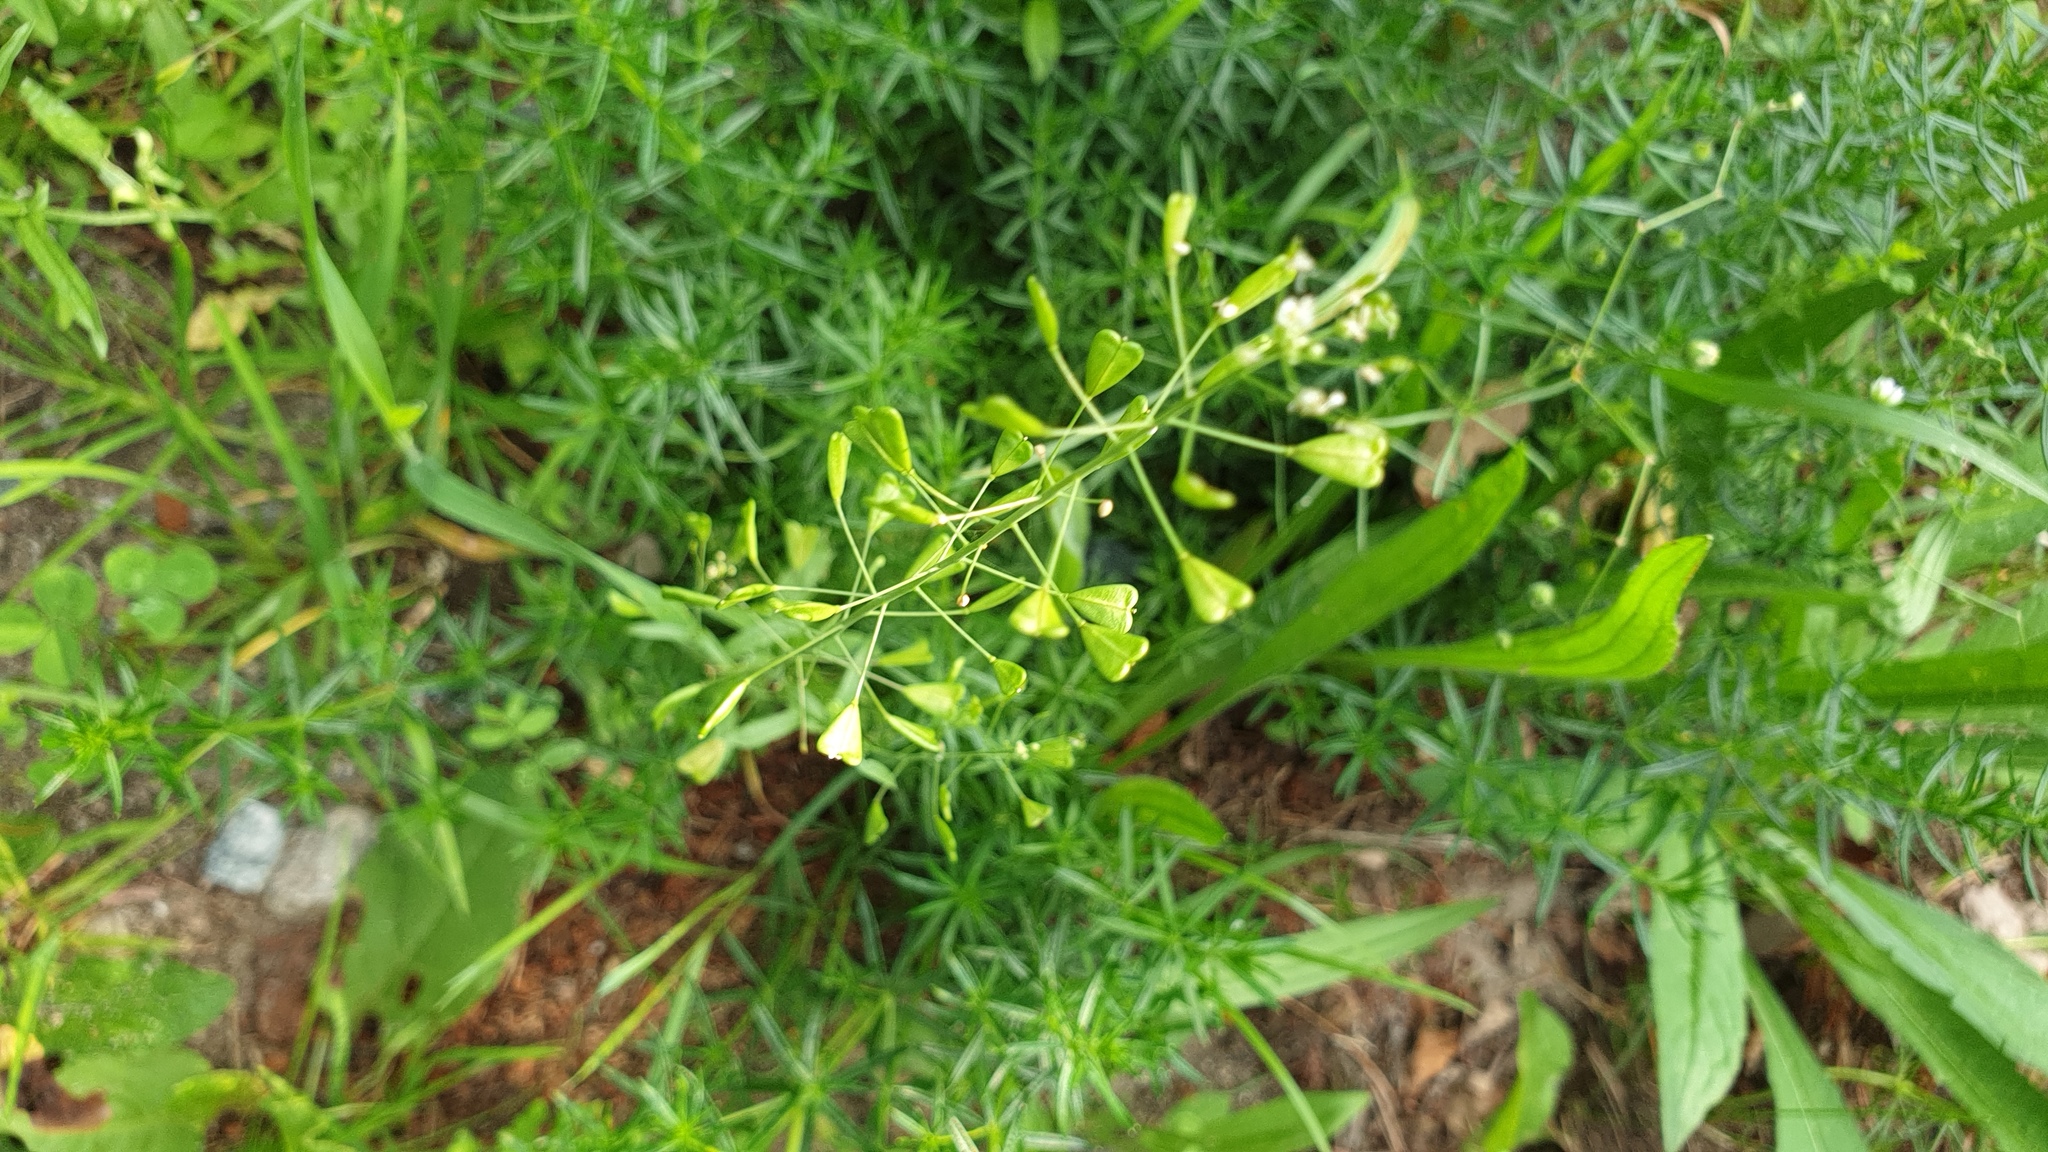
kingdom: Plantae
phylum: Tracheophyta
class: Magnoliopsida
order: Brassicales
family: Brassicaceae
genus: Capsella
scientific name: Capsella bursa-pastoris
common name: Shepherd's purse
